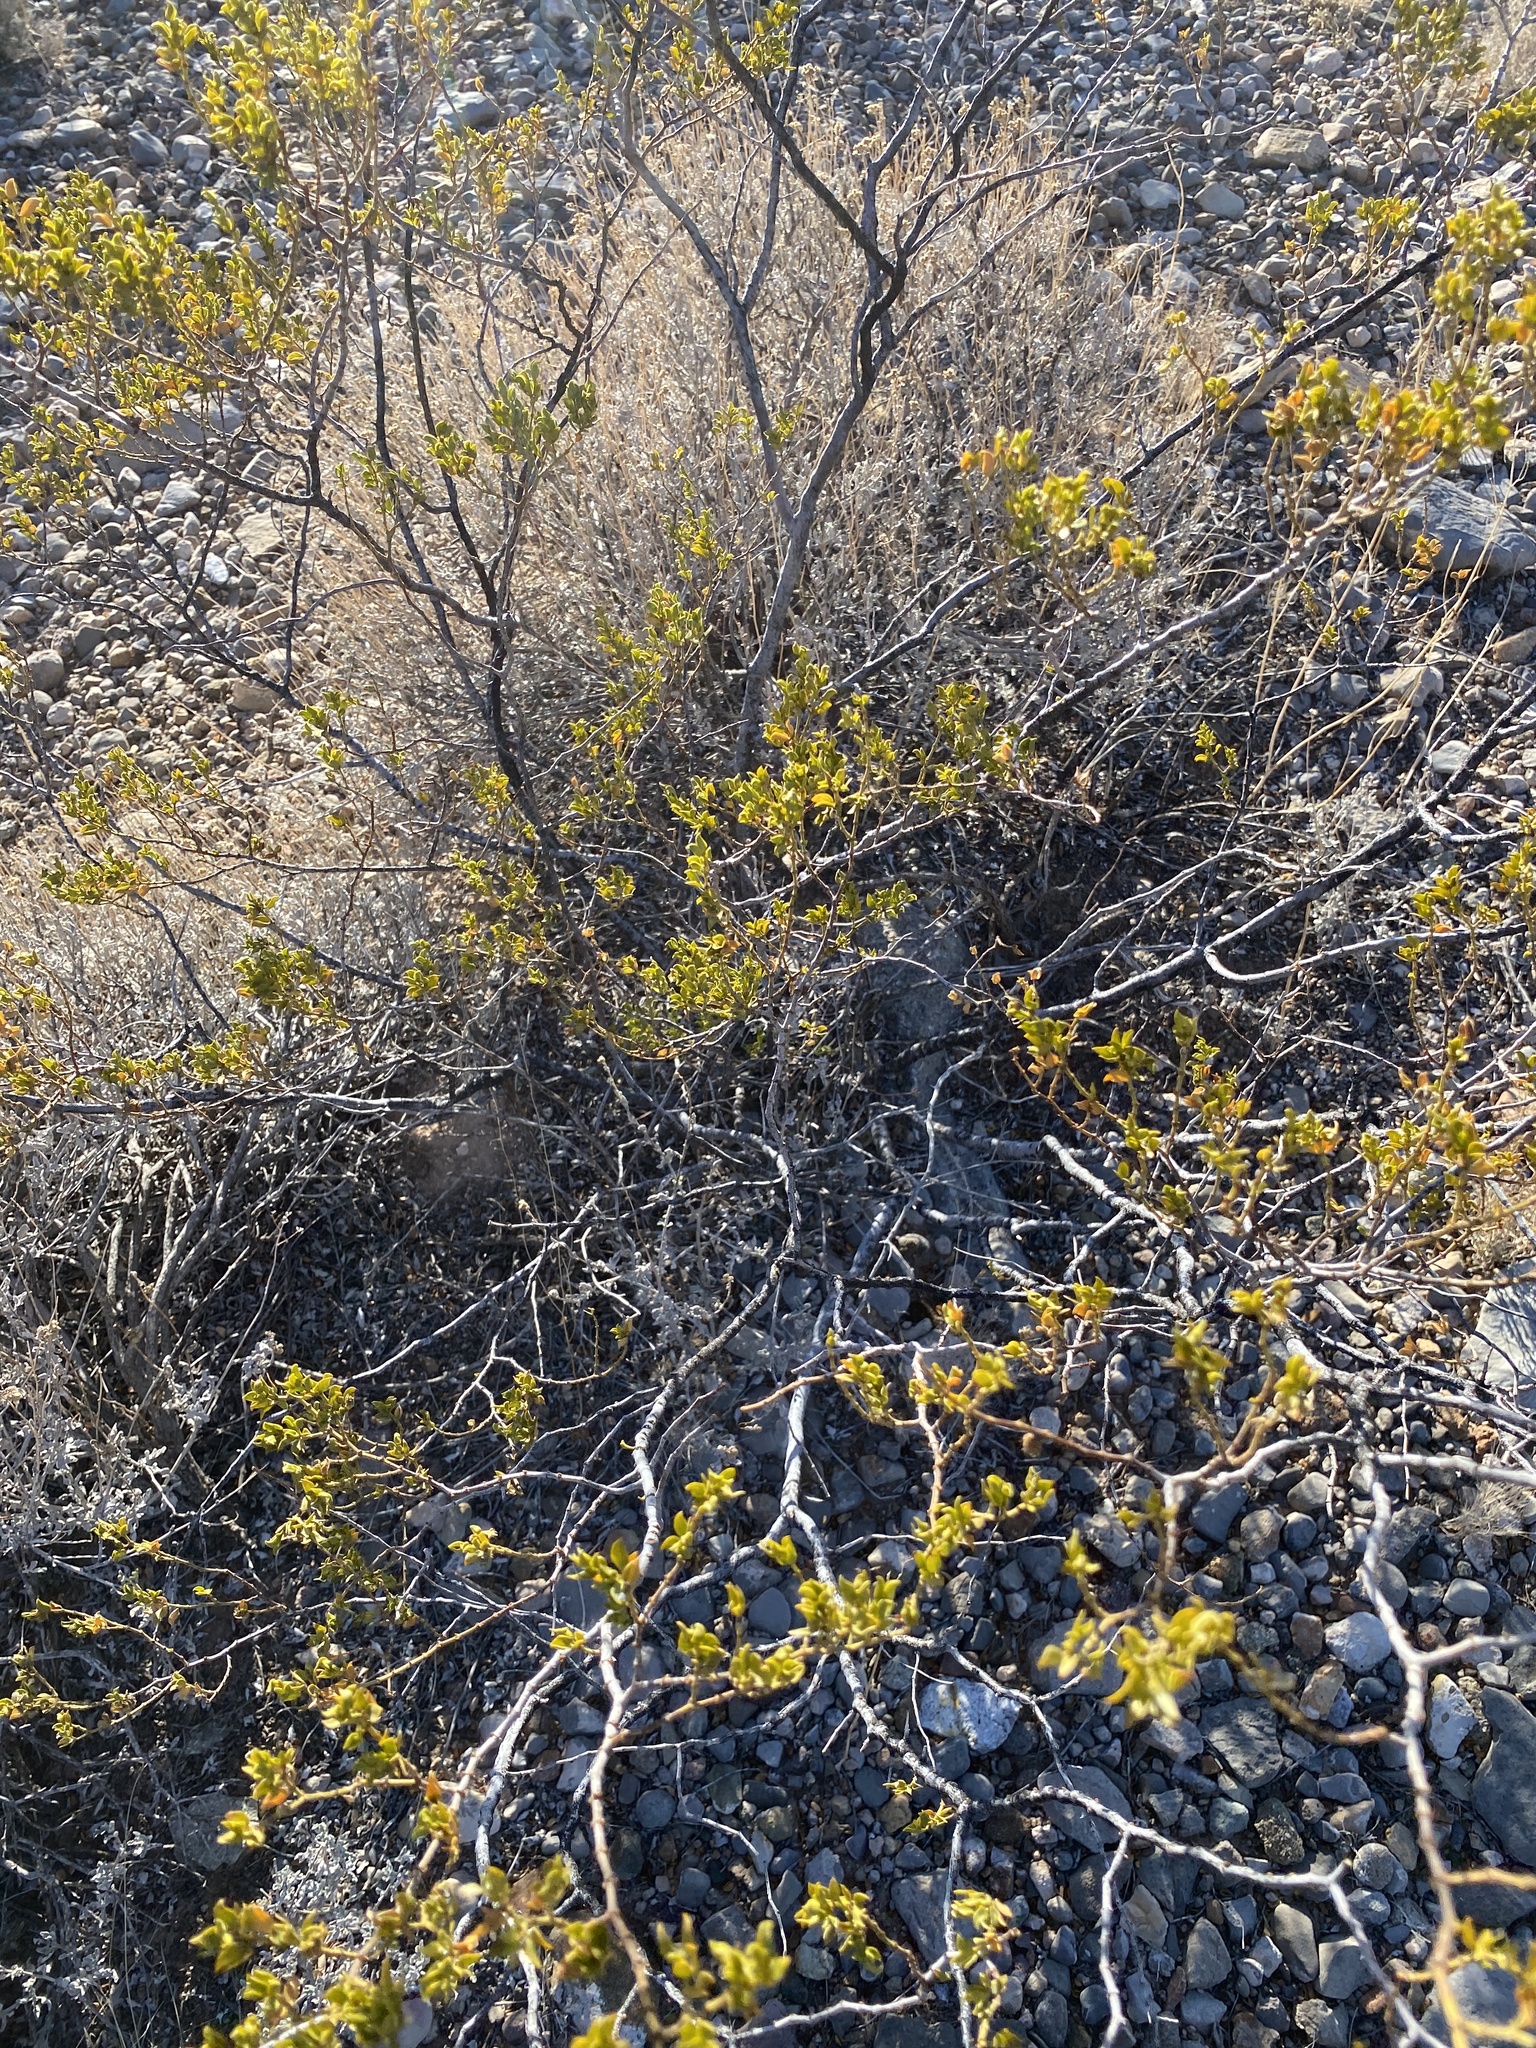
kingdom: Plantae
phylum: Tracheophyta
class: Magnoliopsida
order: Zygophyllales
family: Zygophyllaceae
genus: Larrea
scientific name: Larrea tridentata
